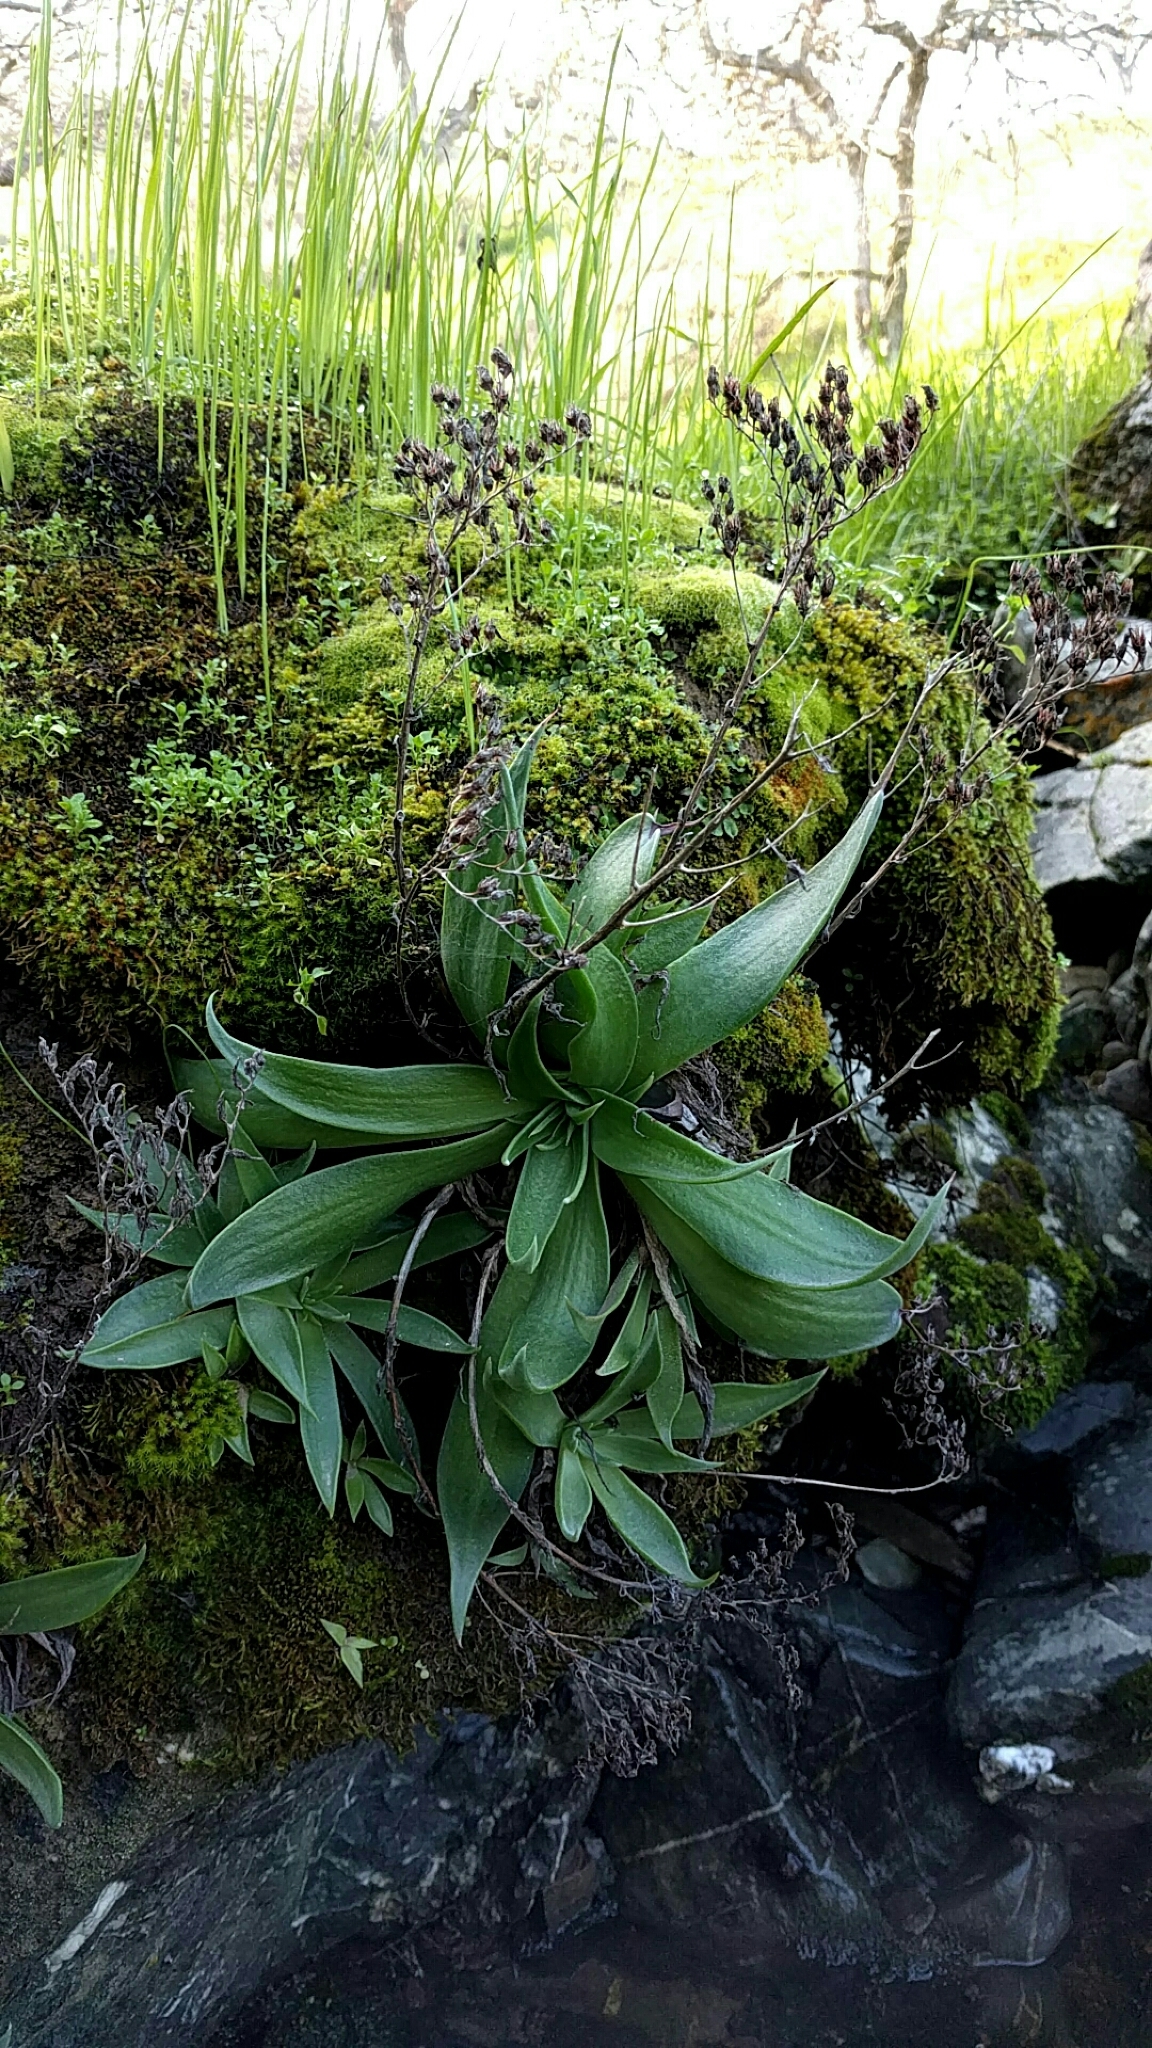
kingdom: Plantae
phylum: Tracheophyta
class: Magnoliopsida
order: Saxifragales
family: Crassulaceae
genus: Dudleya
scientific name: Dudleya cymosa
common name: Canyon dudleya
